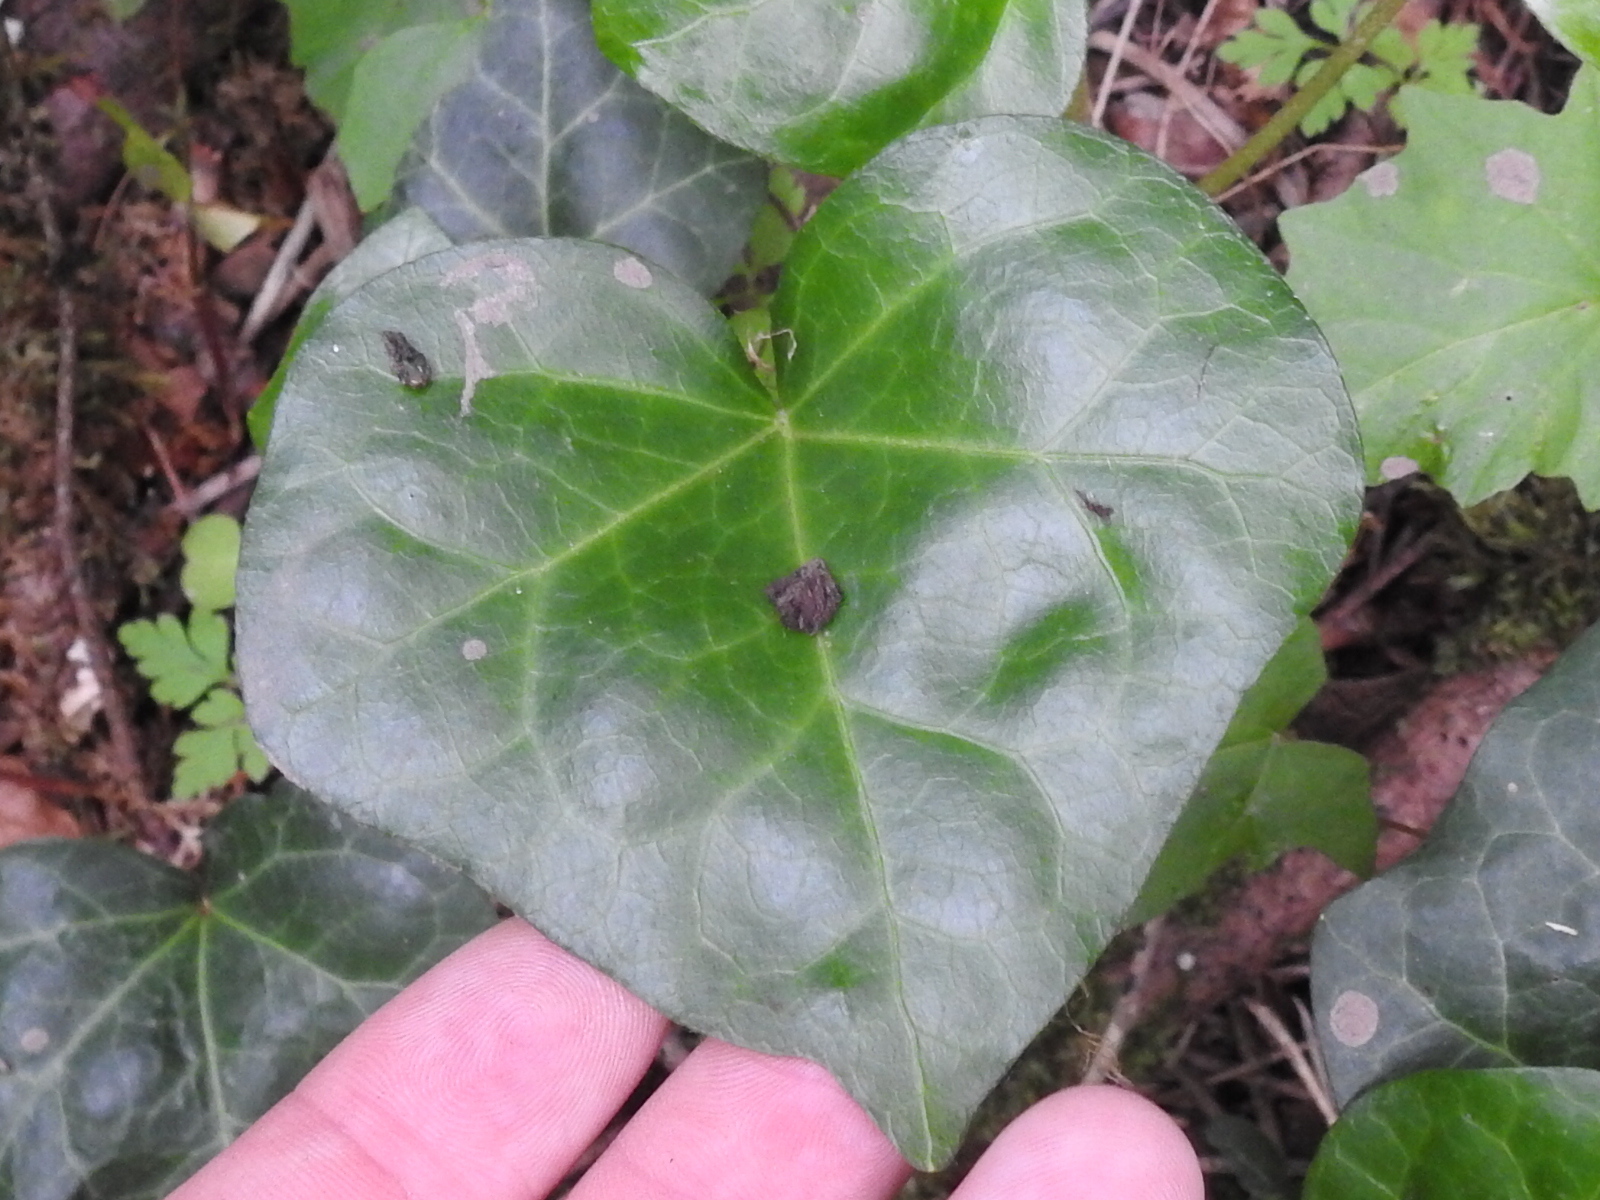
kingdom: Plantae
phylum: Tracheophyta
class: Magnoliopsida
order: Apiales
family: Araliaceae
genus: Hedera
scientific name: Hedera helix
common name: Ivy
